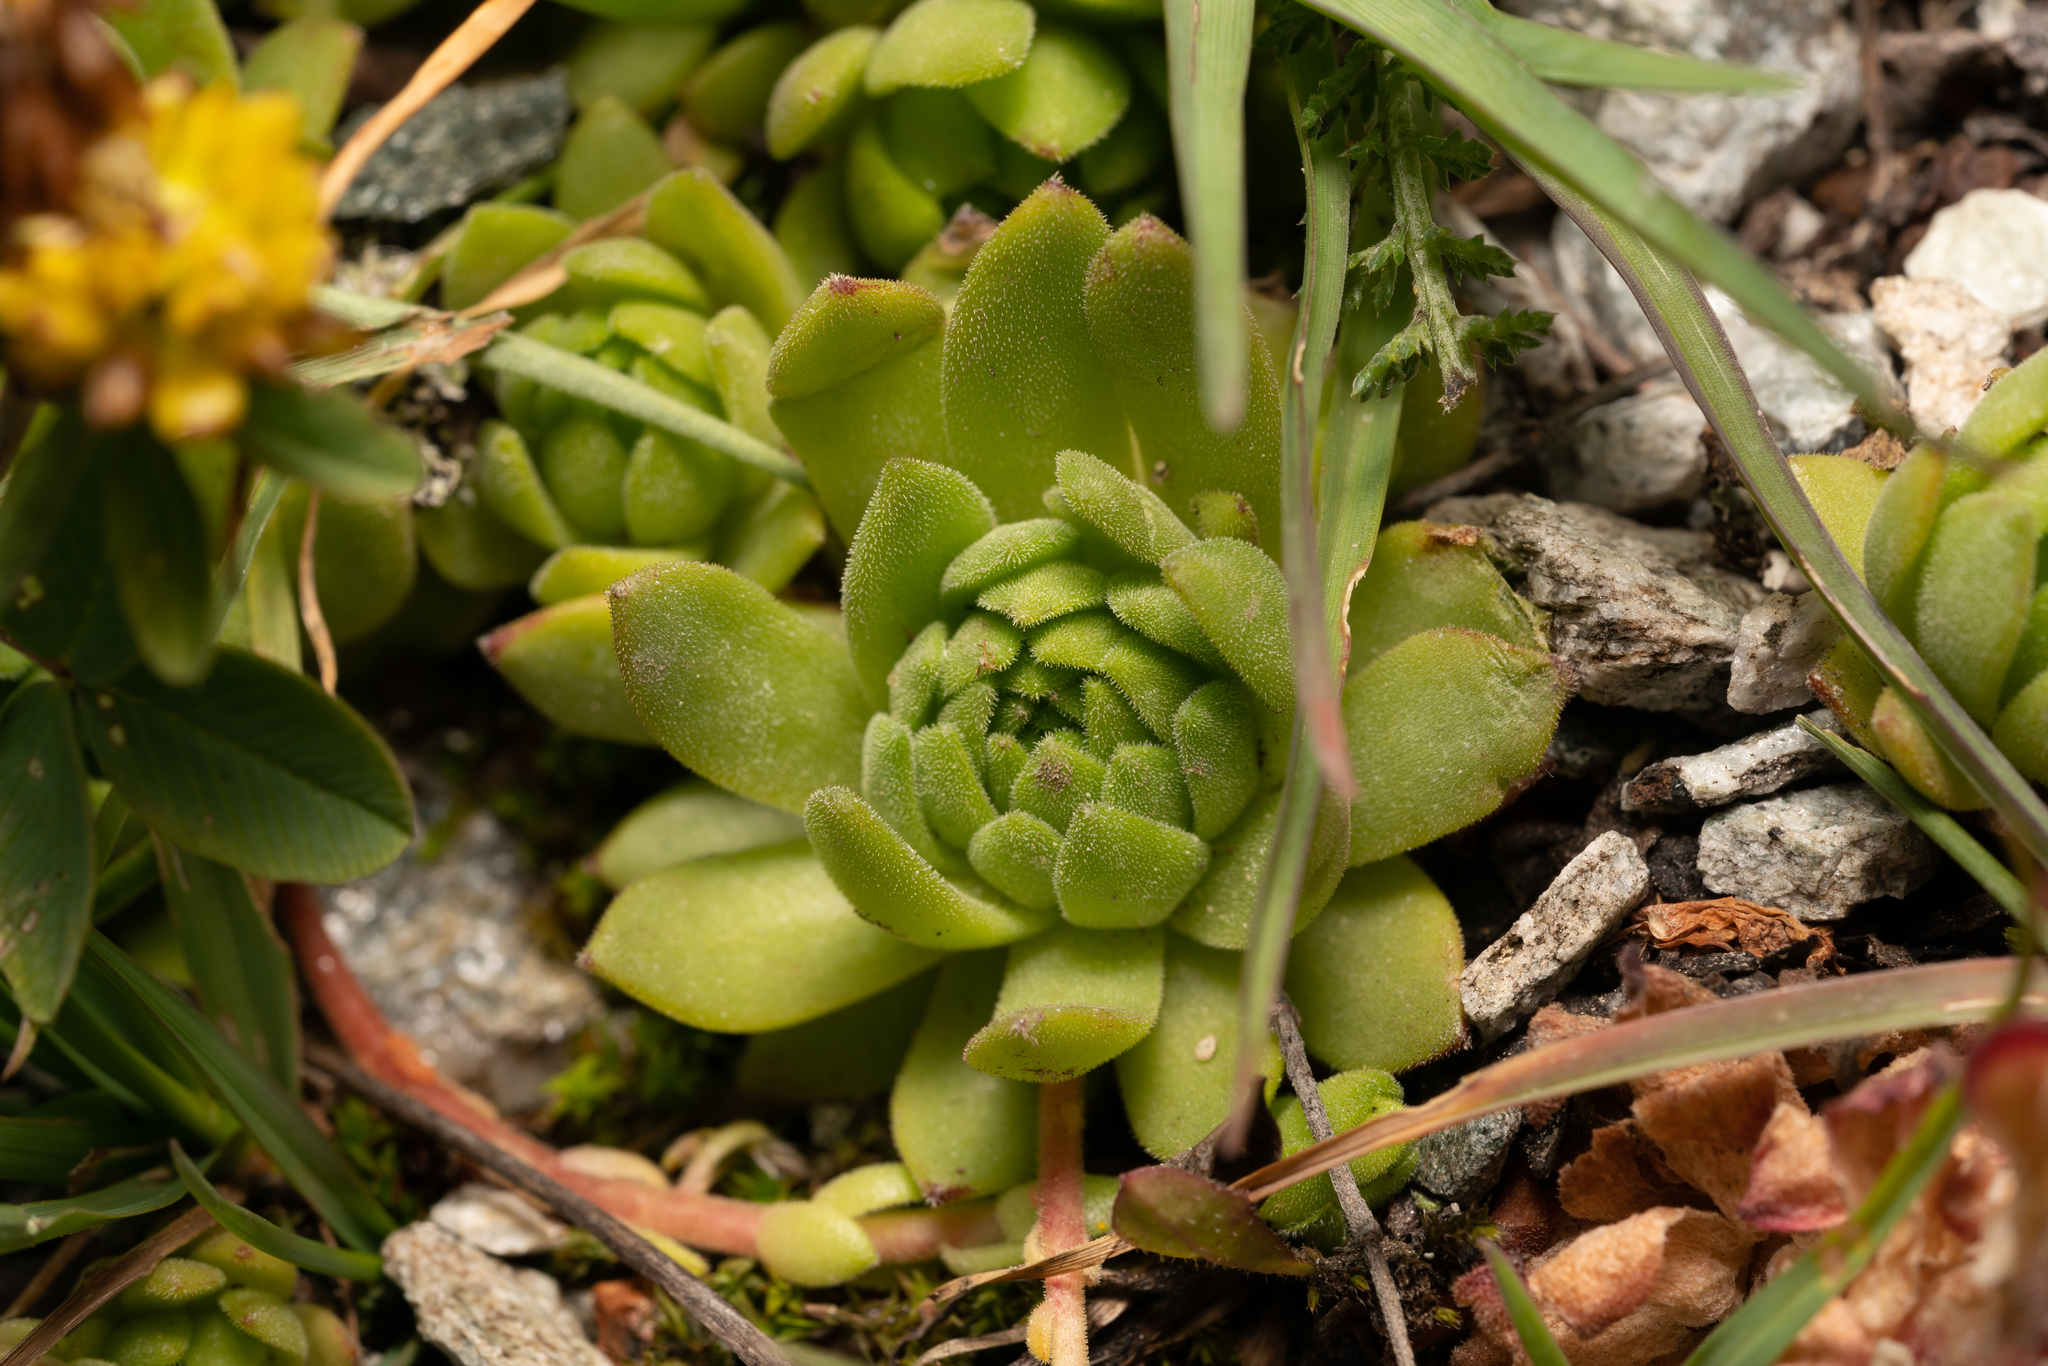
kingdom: Plantae
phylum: Tracheophyta
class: Magnoliopsida
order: Saxifragales
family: Crassulaceae
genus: Sempervivum
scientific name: Sempervivum montanum
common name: Mountain house-leek
